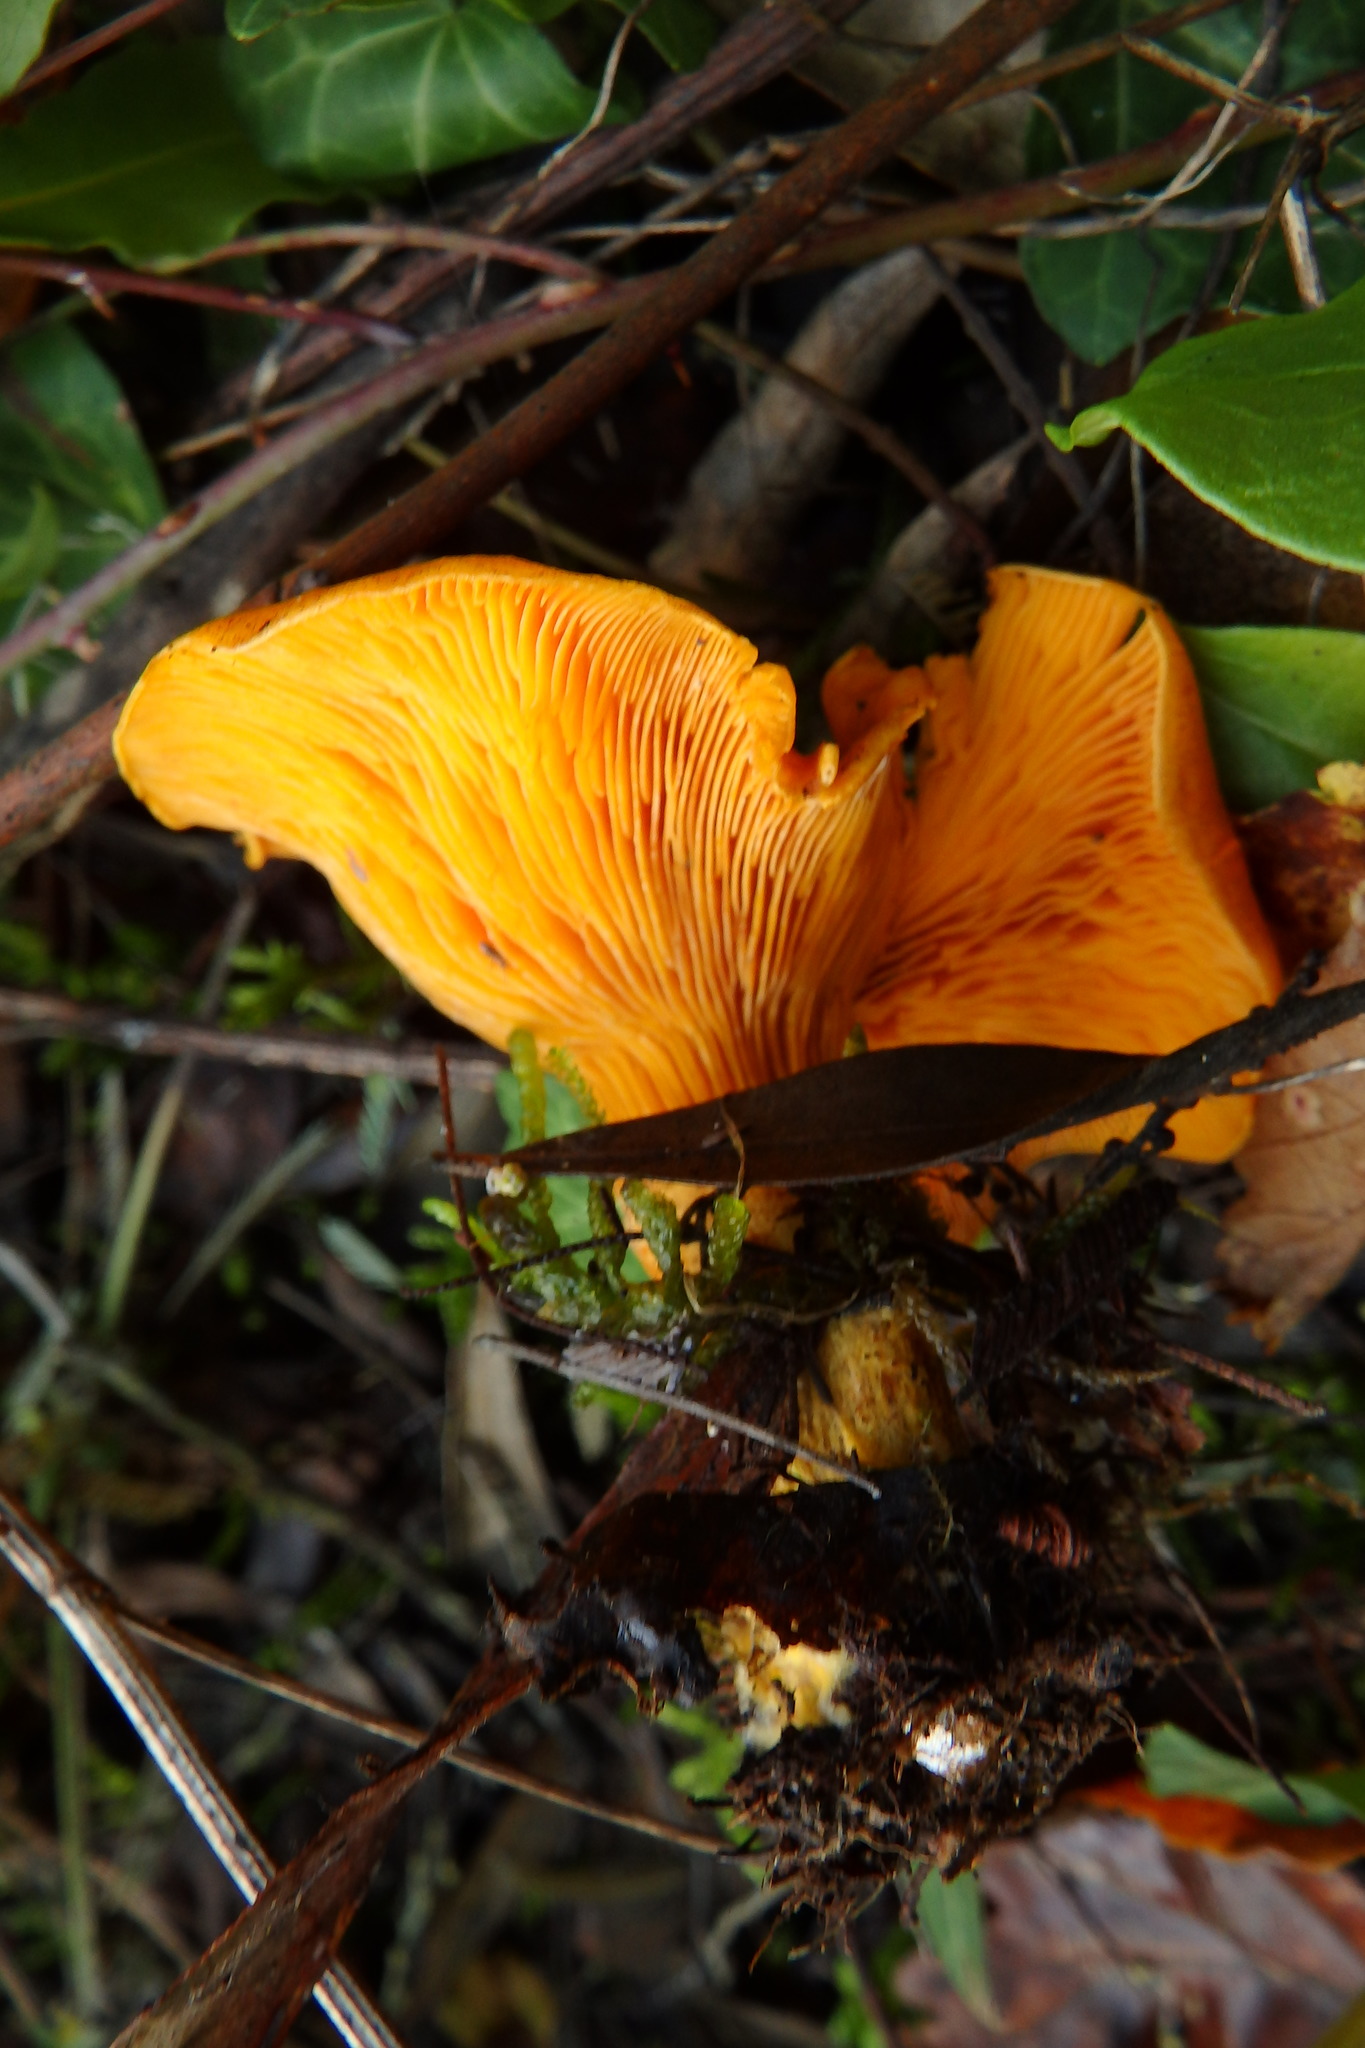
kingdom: Fungi
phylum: Basidiomycota
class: Agaricomycetes
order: Agaricales
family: Omphalotaceae
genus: Omphalotus
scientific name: Omphalotus olearius
